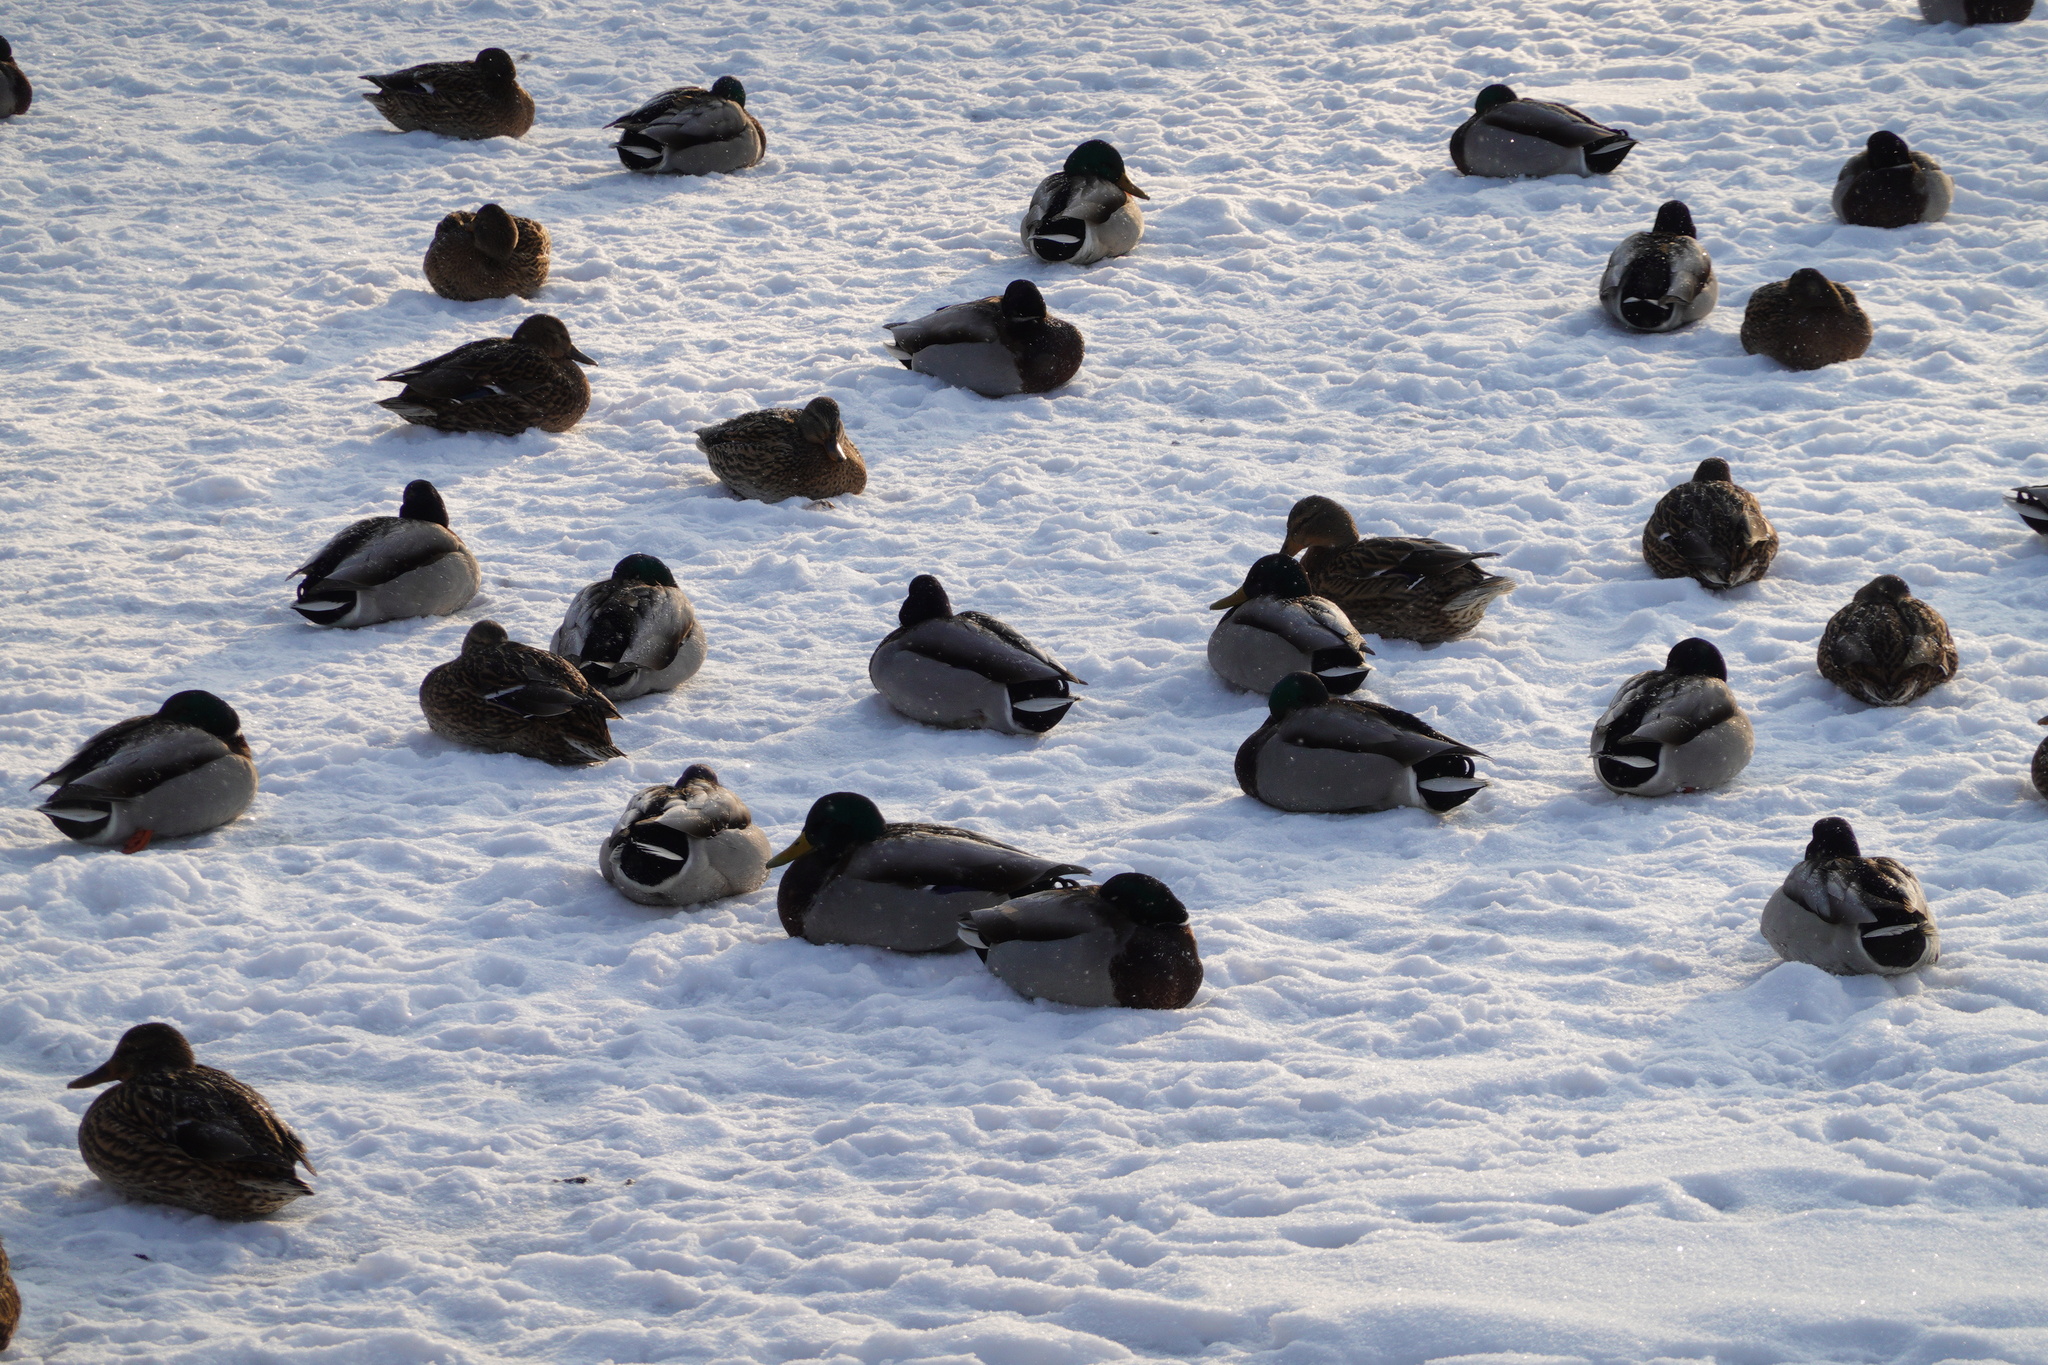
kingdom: Animalia
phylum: Chordata
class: Aves
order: Anseriformes
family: Anatidae
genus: Anas
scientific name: Anas platyrhynchos
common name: Mallard
